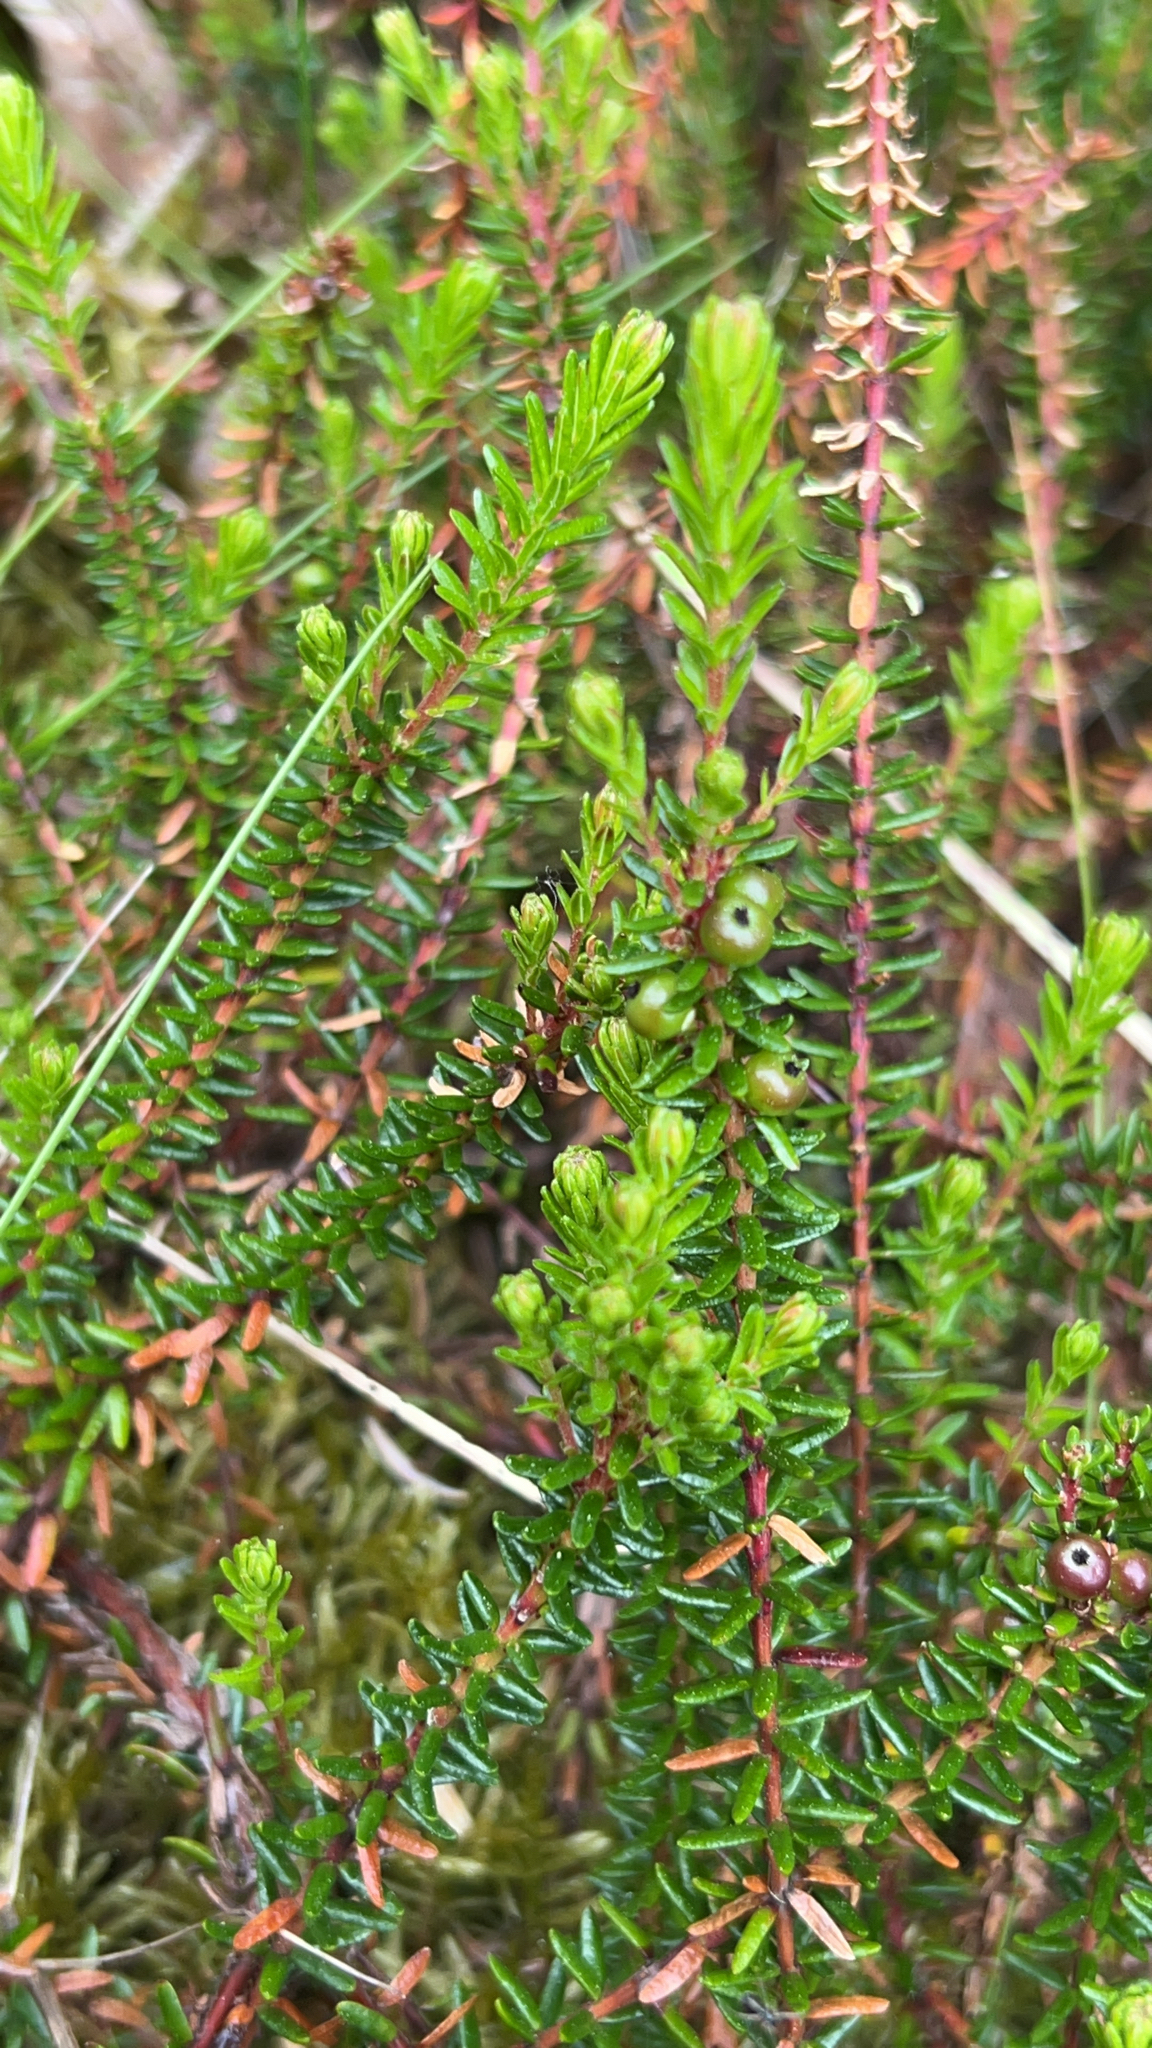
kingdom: Plantae
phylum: Tracheophyta
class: Magnoliopsida
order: Ericales
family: Ericaceae
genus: Empetrum
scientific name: Empetrum nigrum
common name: Black crowberry
